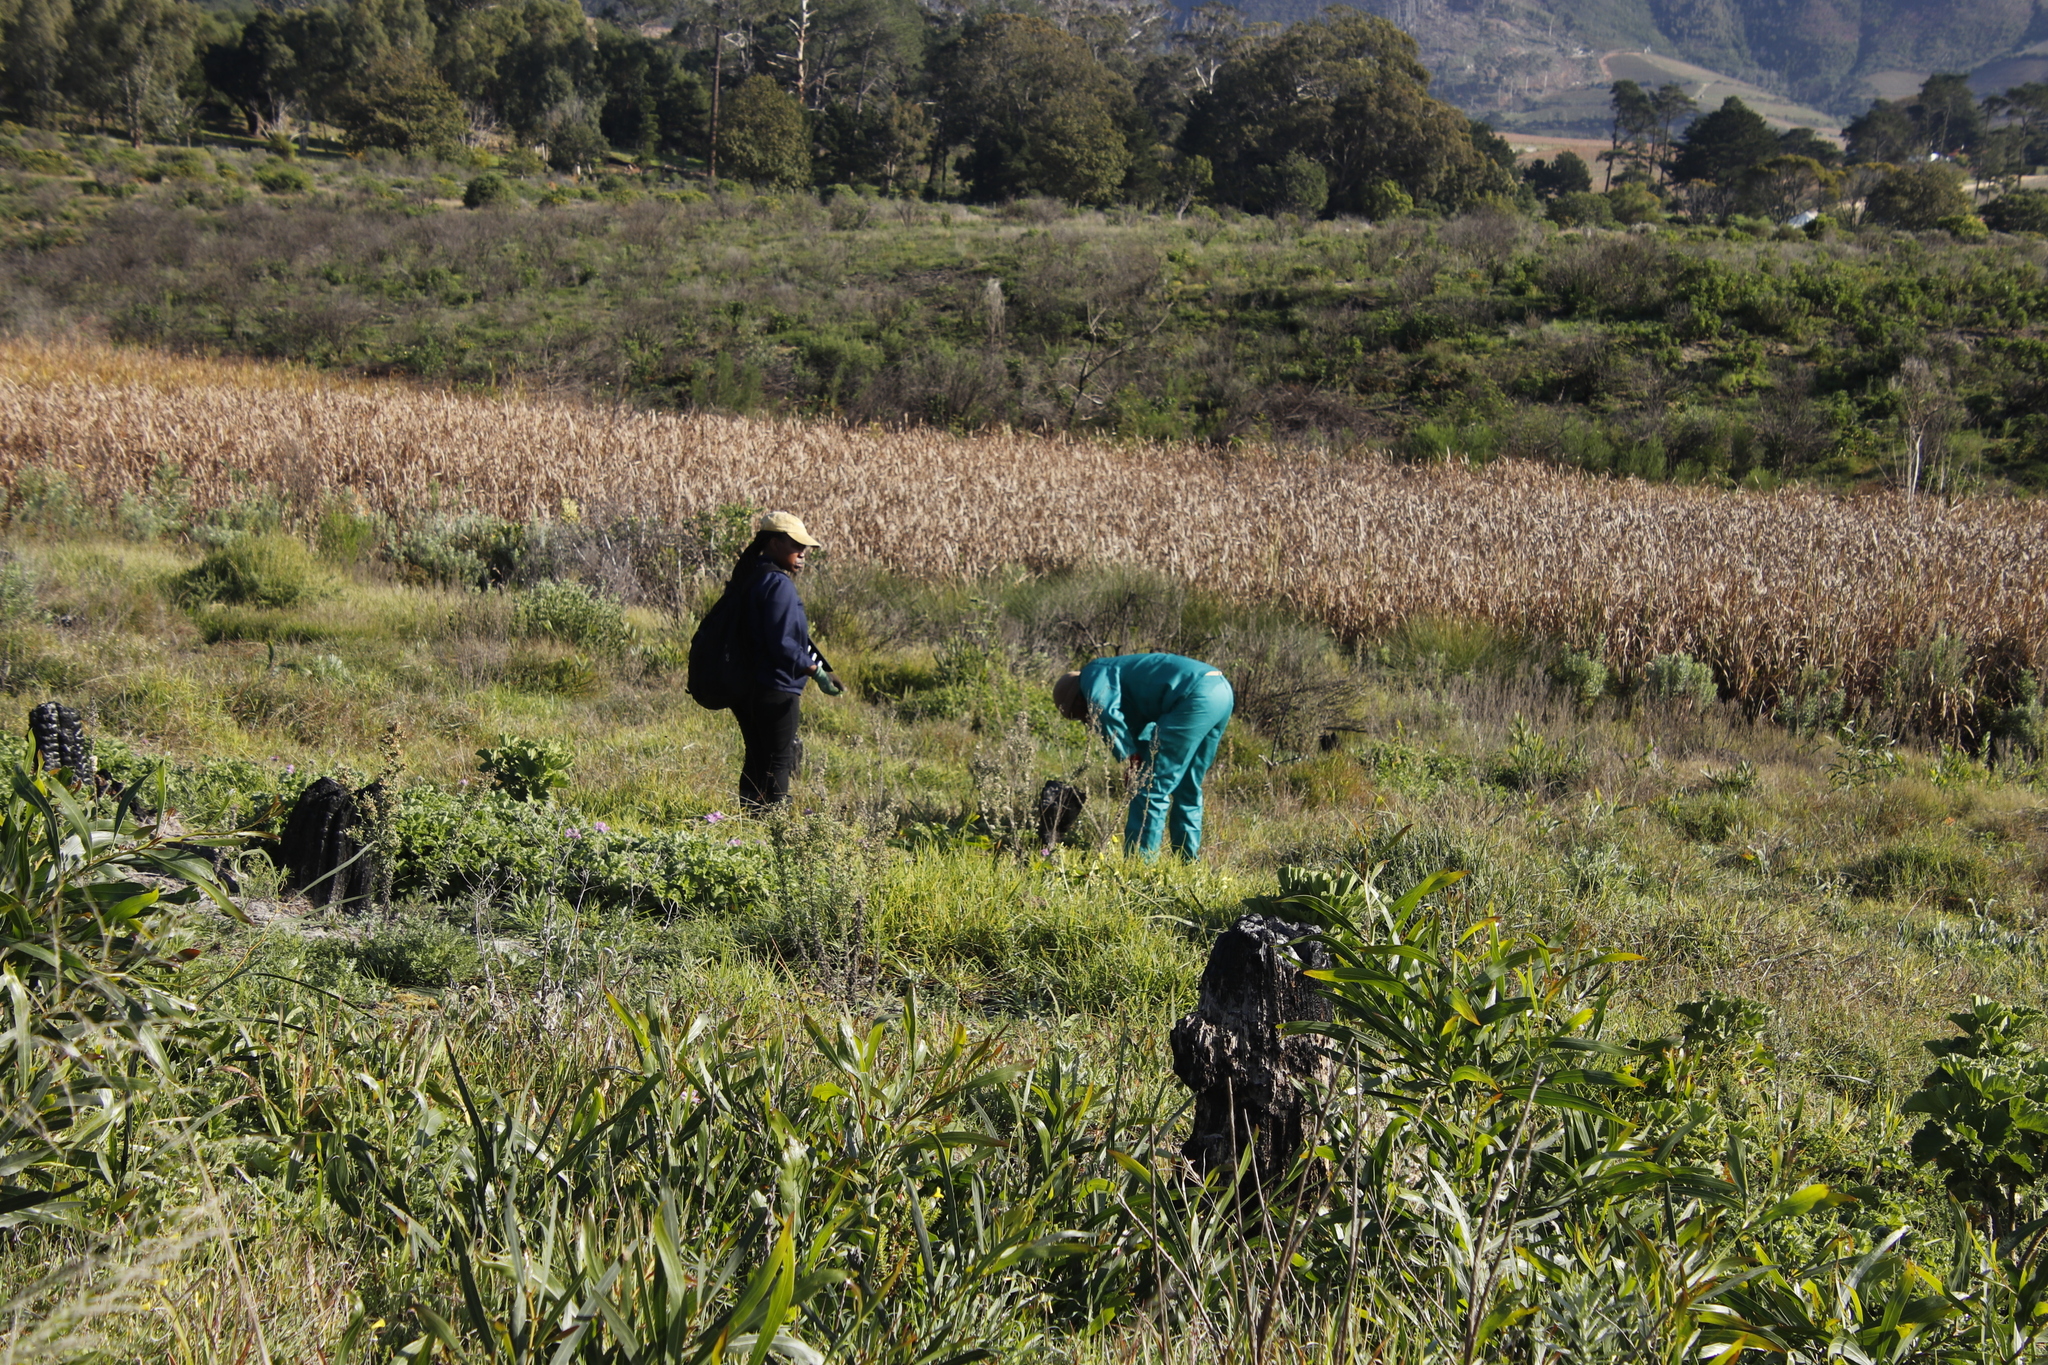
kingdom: Plantae
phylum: Tracheophyta
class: Magnoliopsida
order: Geraniales
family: Geraniaceae
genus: Pelargonium
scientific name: Pelargonium capitatum
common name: Rose scented geranium
